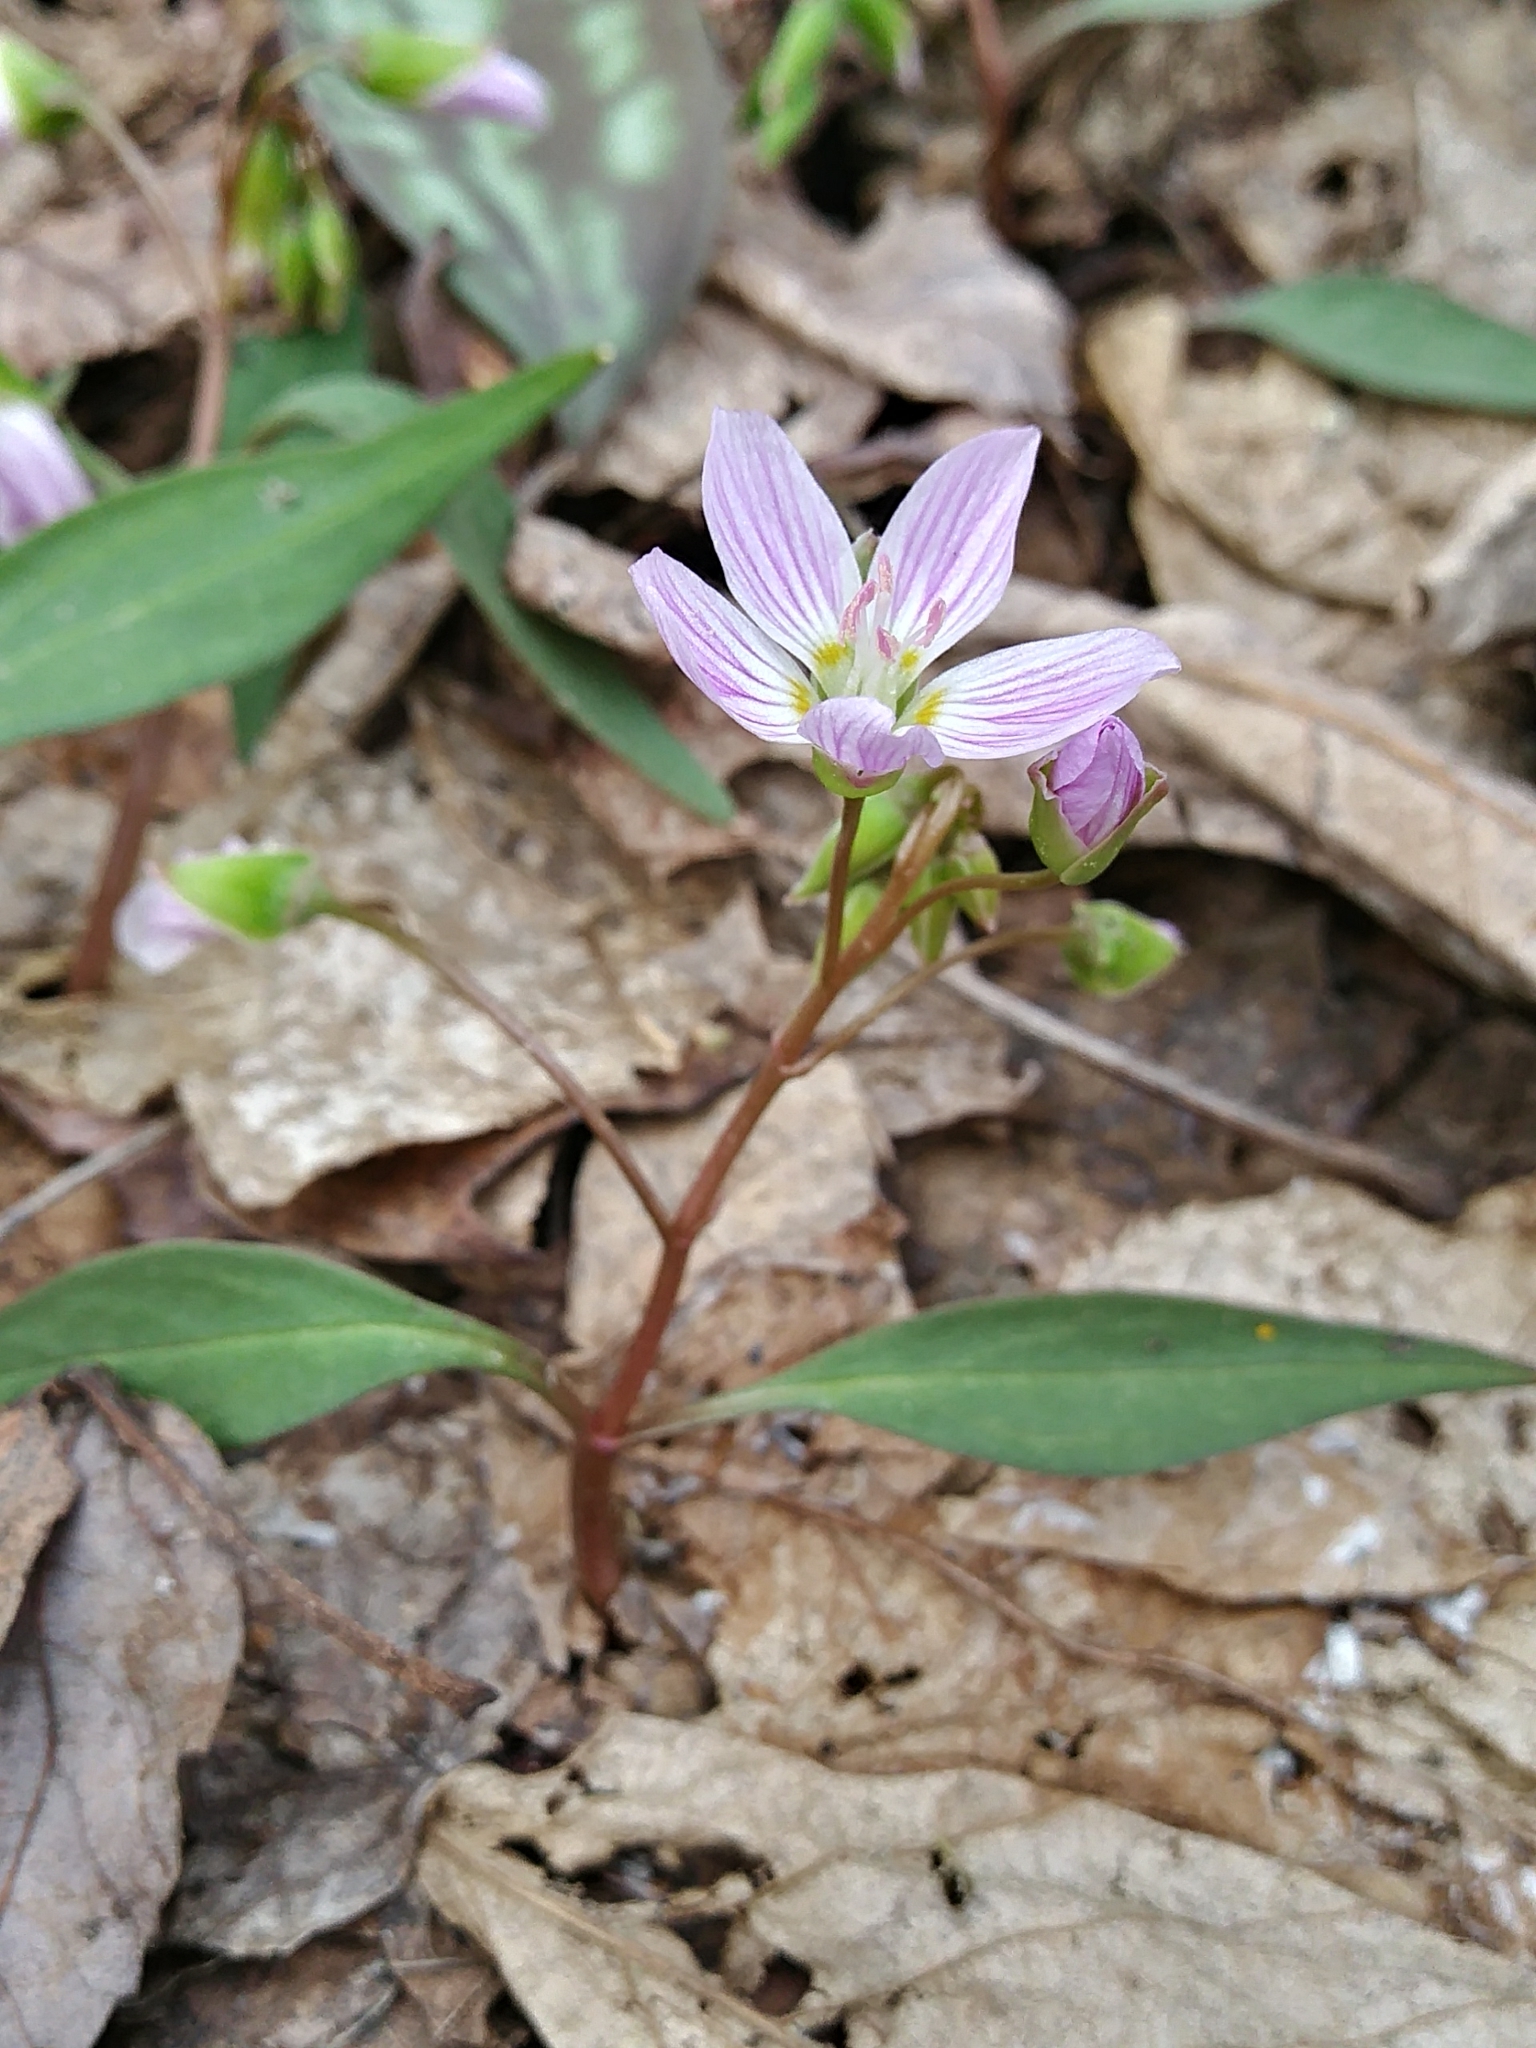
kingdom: Plantae
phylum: Tracheophyta
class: Magnoliopsida
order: Caryophyllales
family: Montiaceae
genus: Claytonia
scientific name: Claytonia caroliniana
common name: Carolina spring beauty
